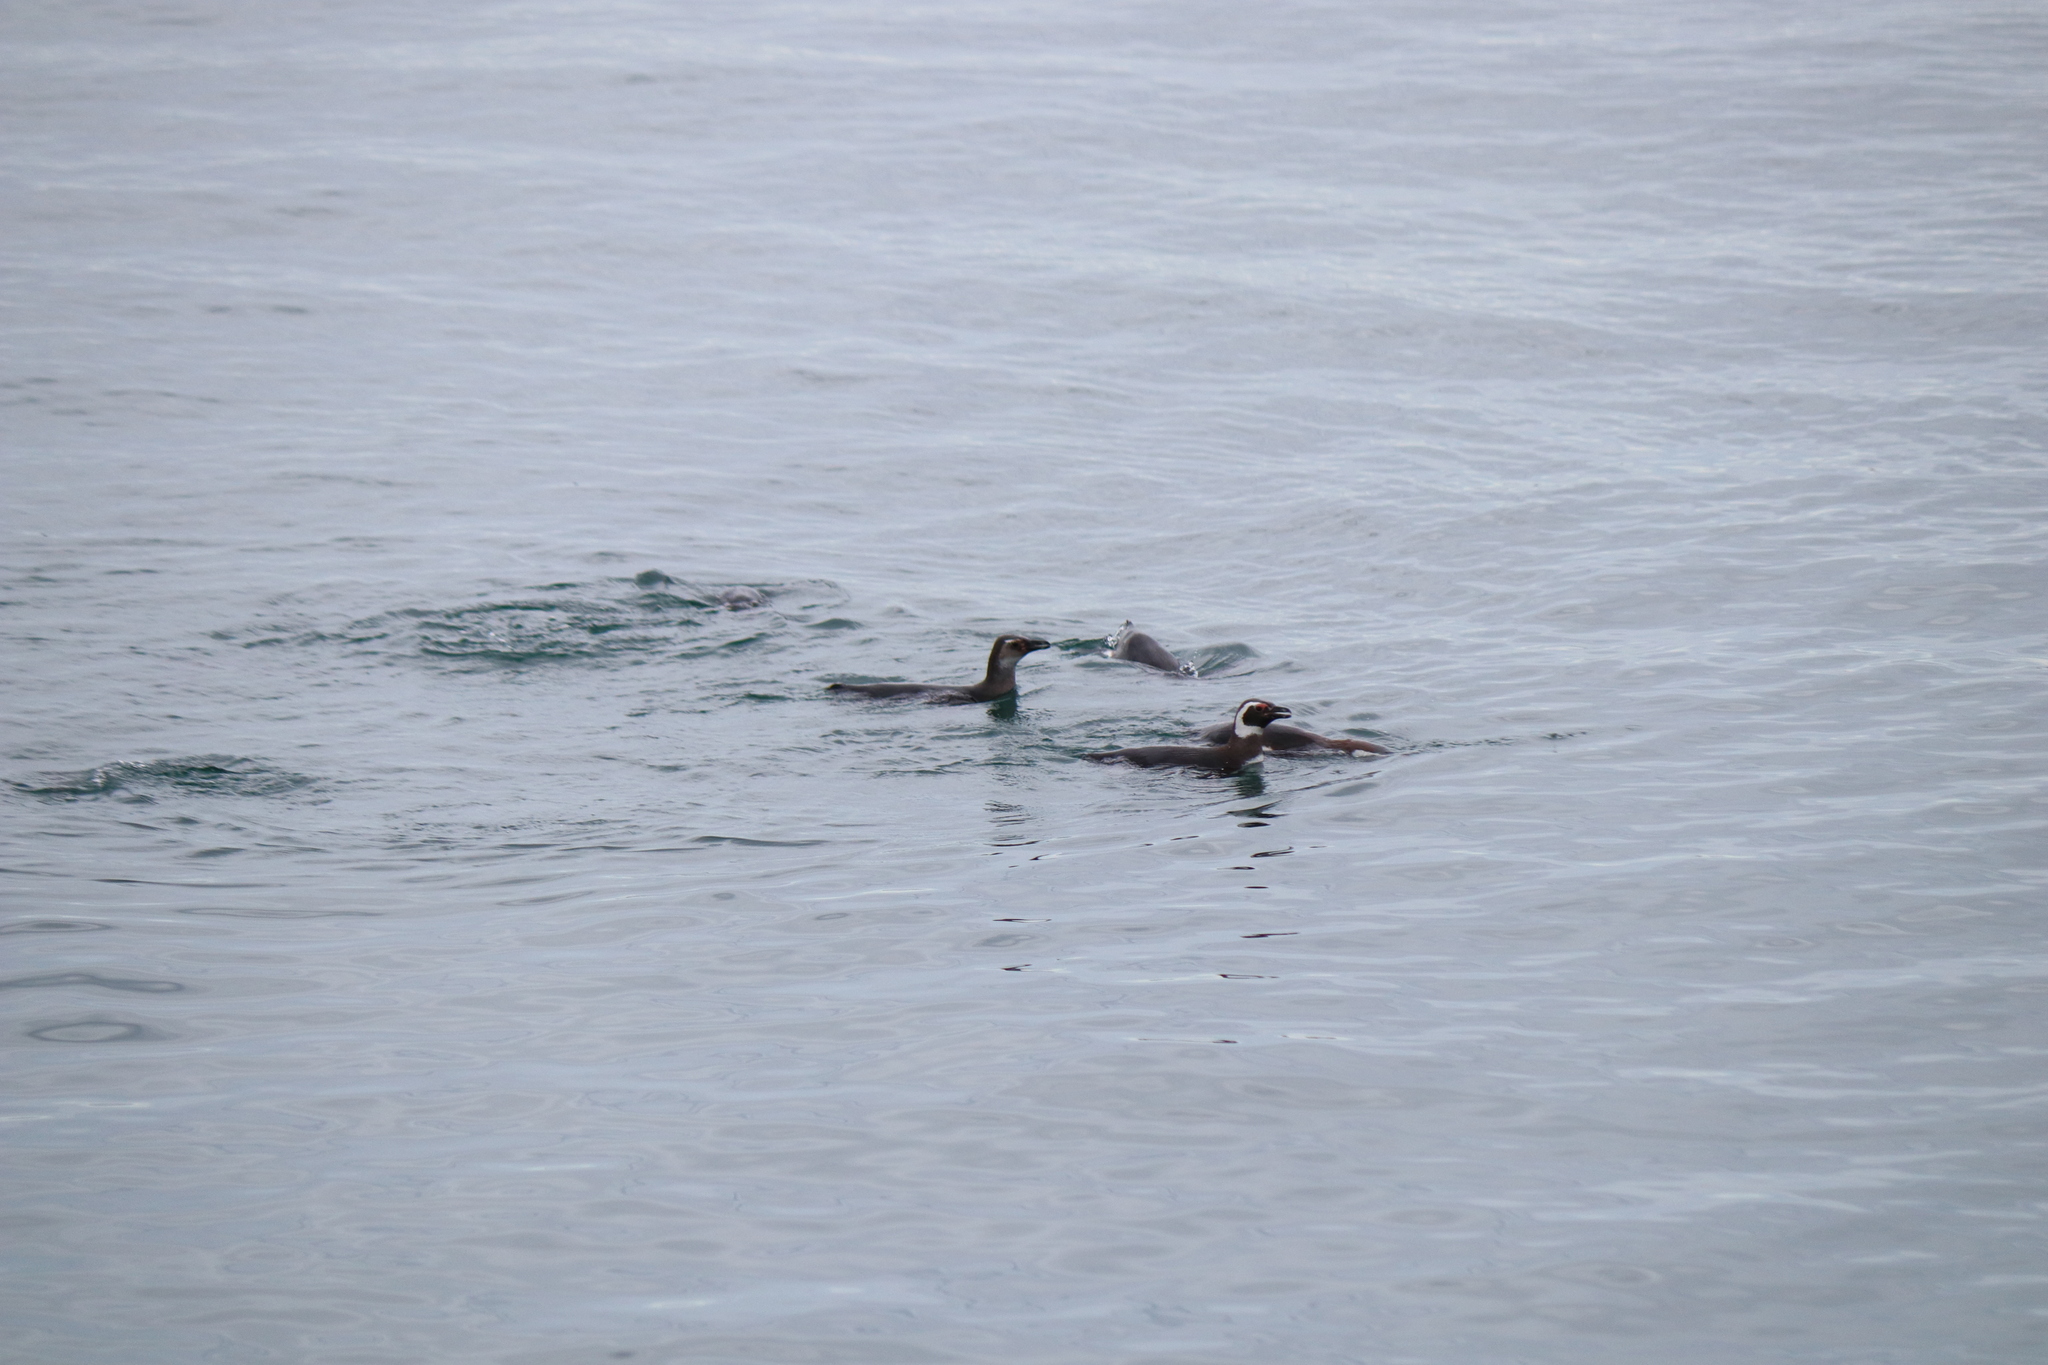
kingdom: Animalia
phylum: Chordata
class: Aves
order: Sphenisciformes
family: Spheniscidae
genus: Spheniscus
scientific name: Spheniscus magellanicus
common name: Magellanic penguin
